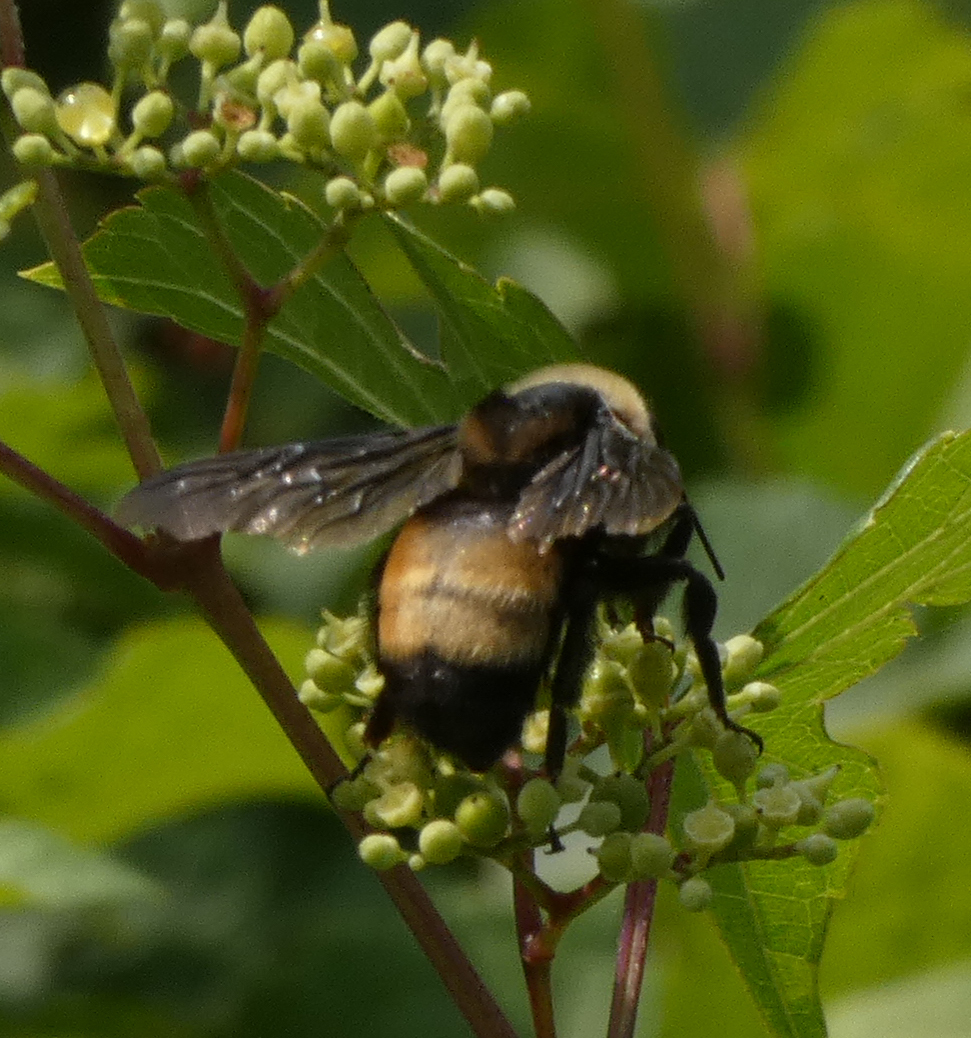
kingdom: Animalia
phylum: Arthropoda
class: Insecta
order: Hymenoptera
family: Apidae
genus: Bombus
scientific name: Bombus auricomus
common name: Black and gold bumble bee
